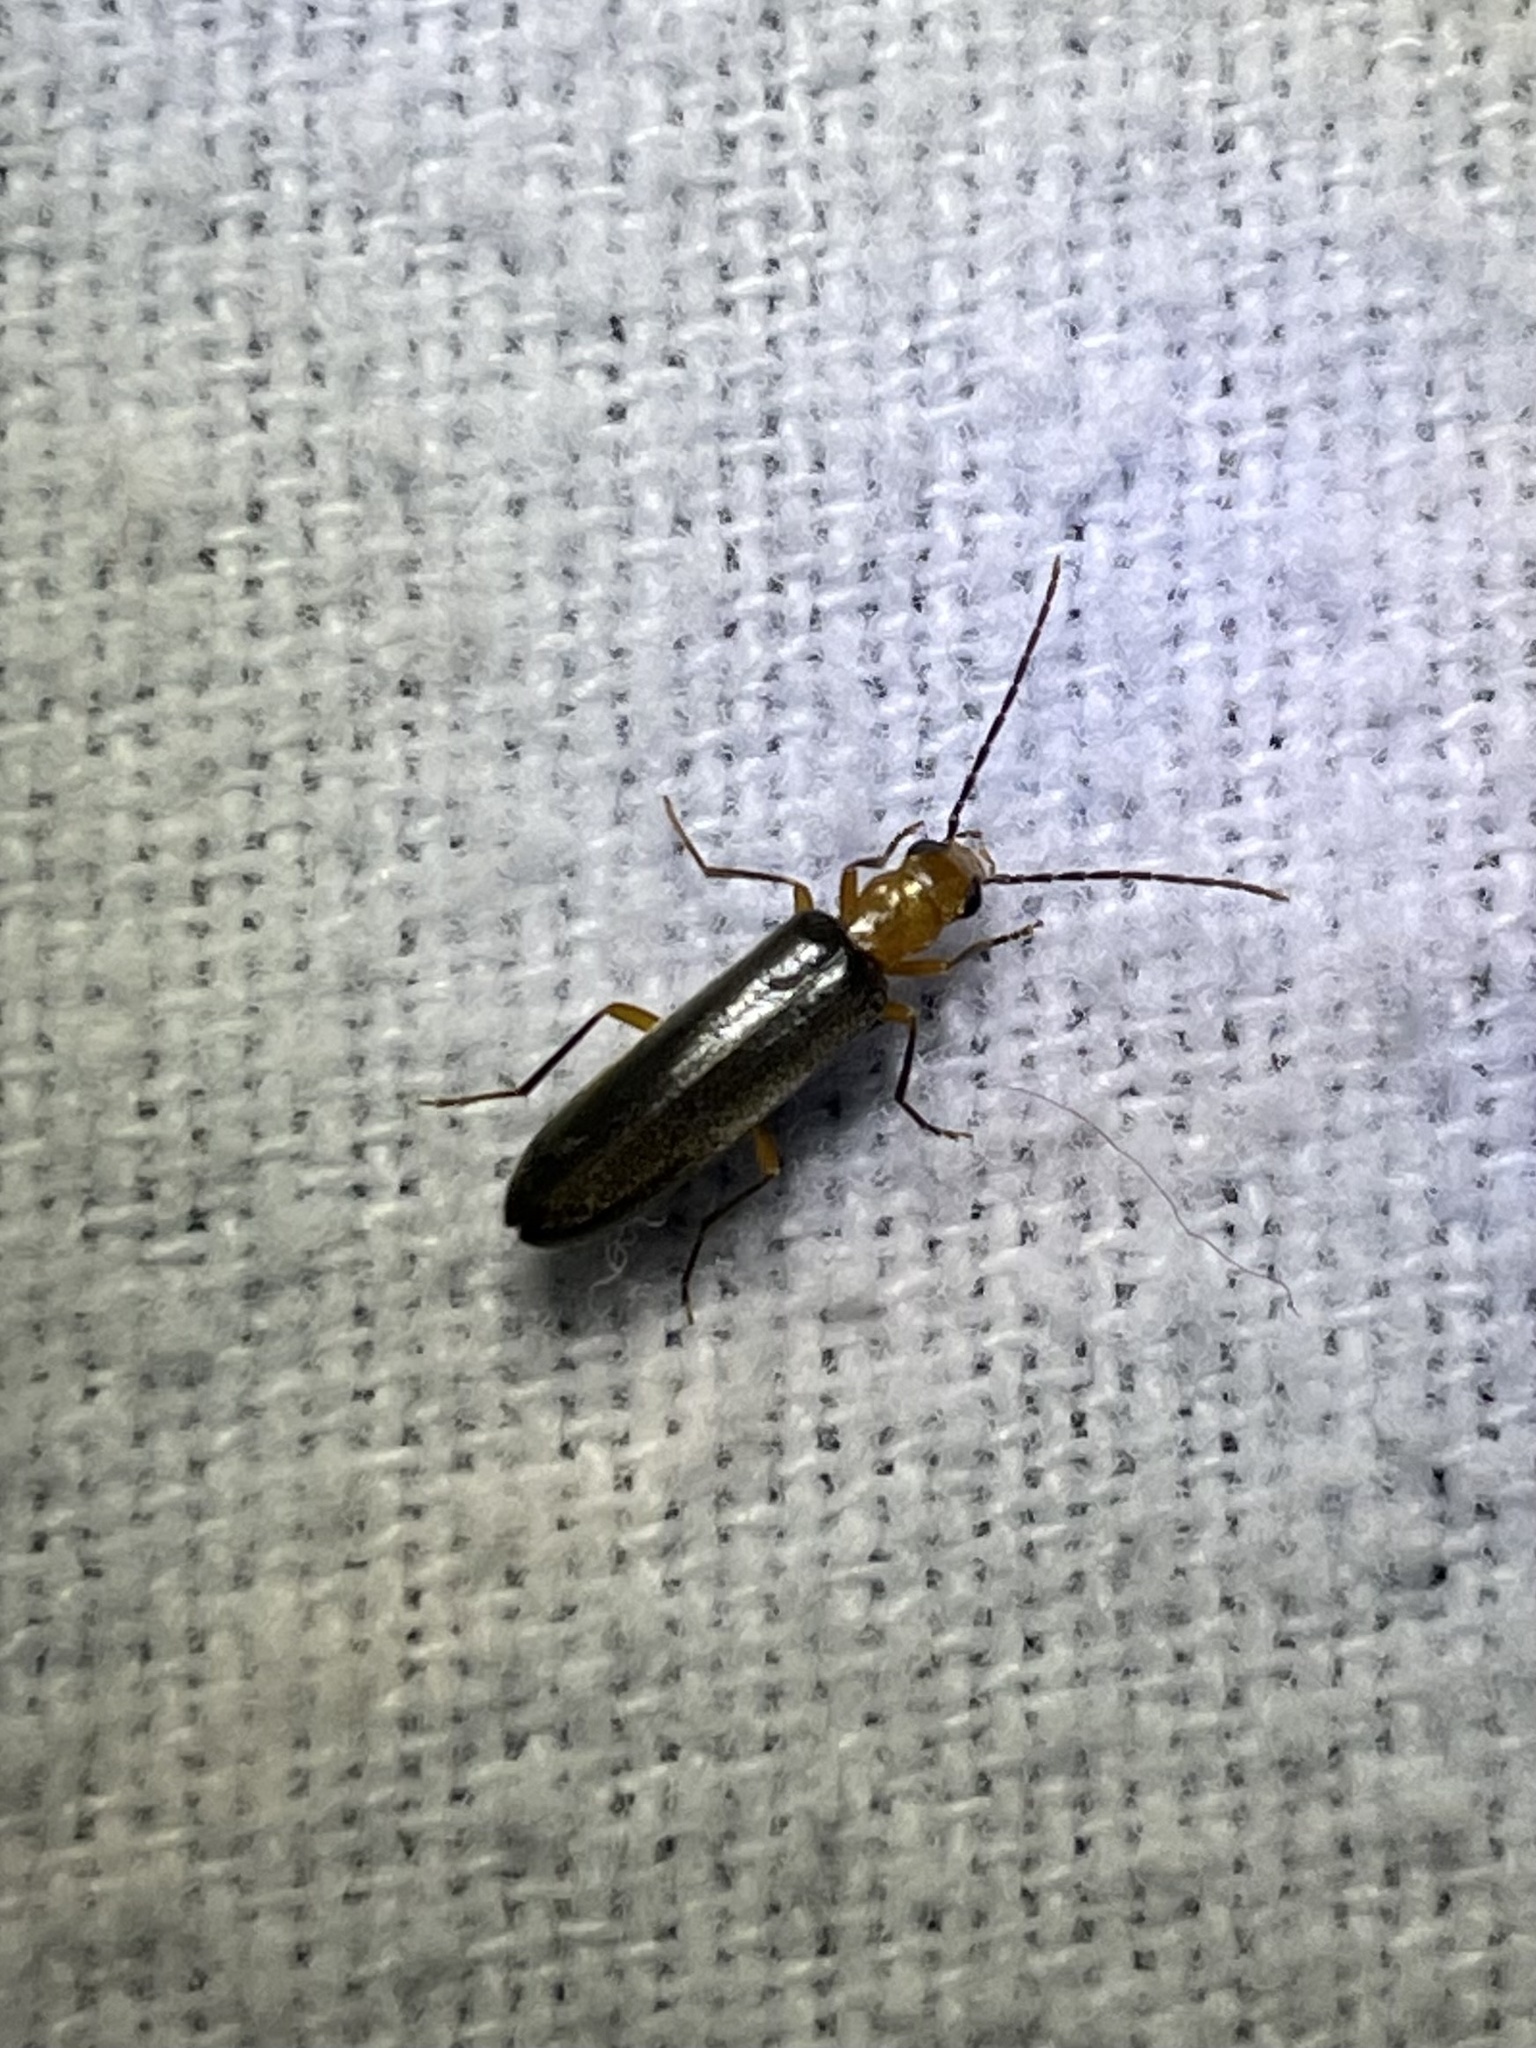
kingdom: Animalia
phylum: Arthropoda
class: Insecta
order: Coleoptera
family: Oedemeridae
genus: Xanthochroina
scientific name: Xanthochroina bicolor
